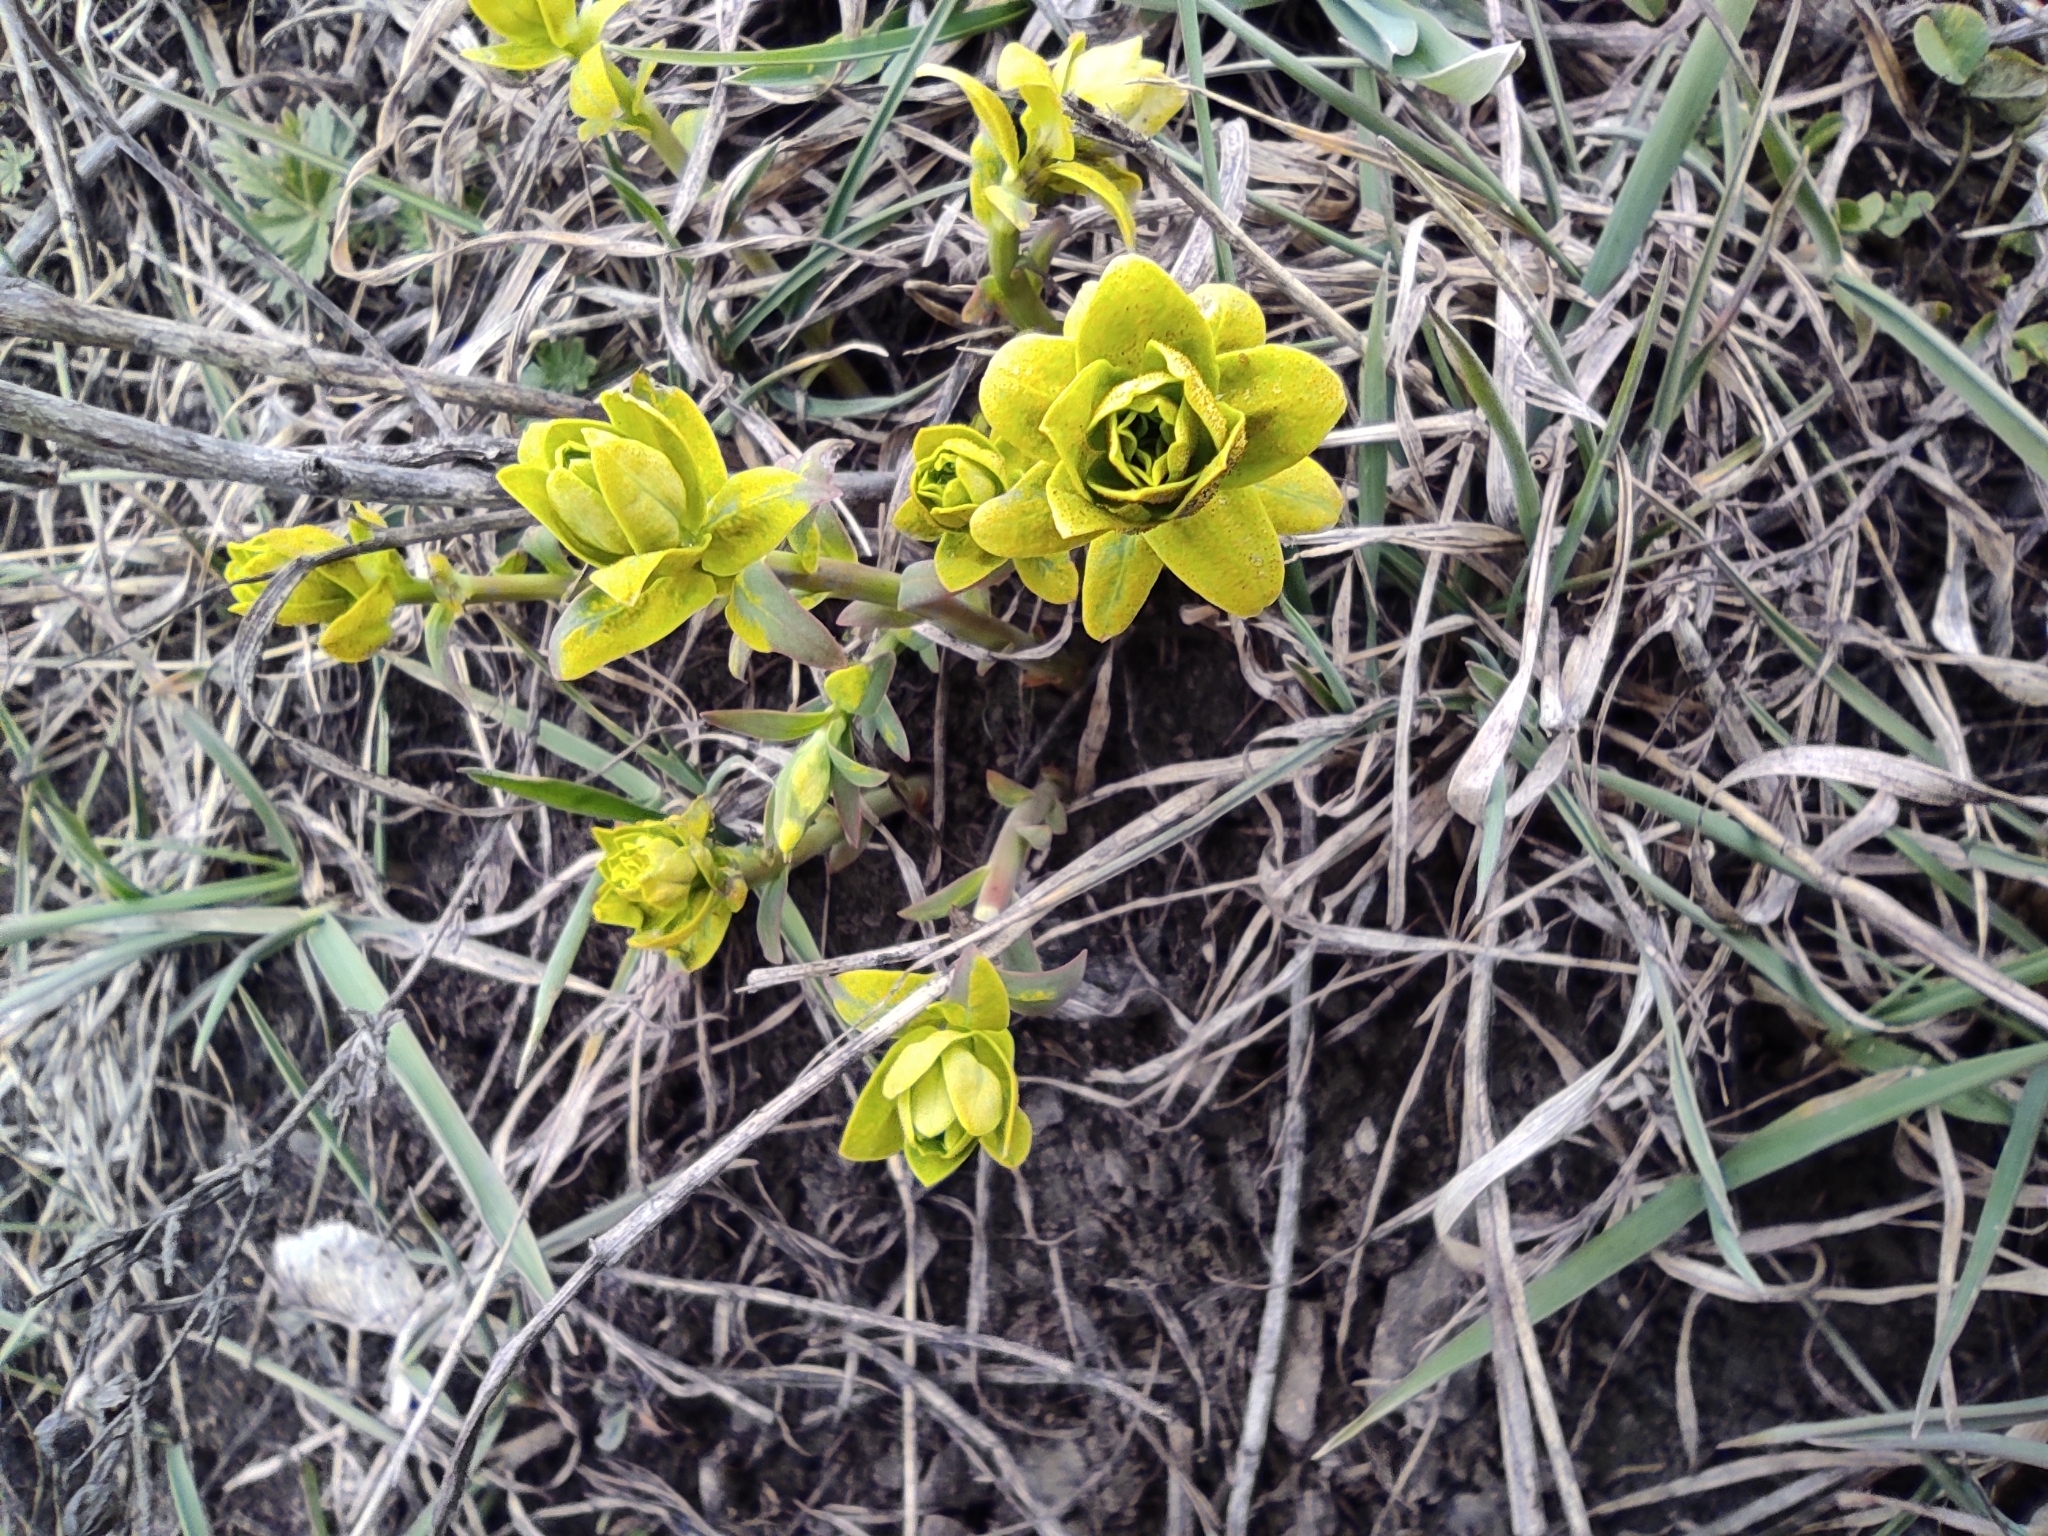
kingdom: Plantae
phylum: Tracheophyta
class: Magnoliopsida
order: Malpighiales
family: Euphorbiaceae
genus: Euphorbia
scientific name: Euphorbia virgata
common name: Leafy spurge
